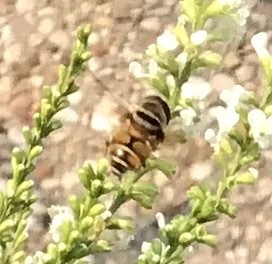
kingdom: Animalia
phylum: Arthropoda
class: Insecta
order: Diptera
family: Syrphidae
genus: Palpada
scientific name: Palpada vinetorum
